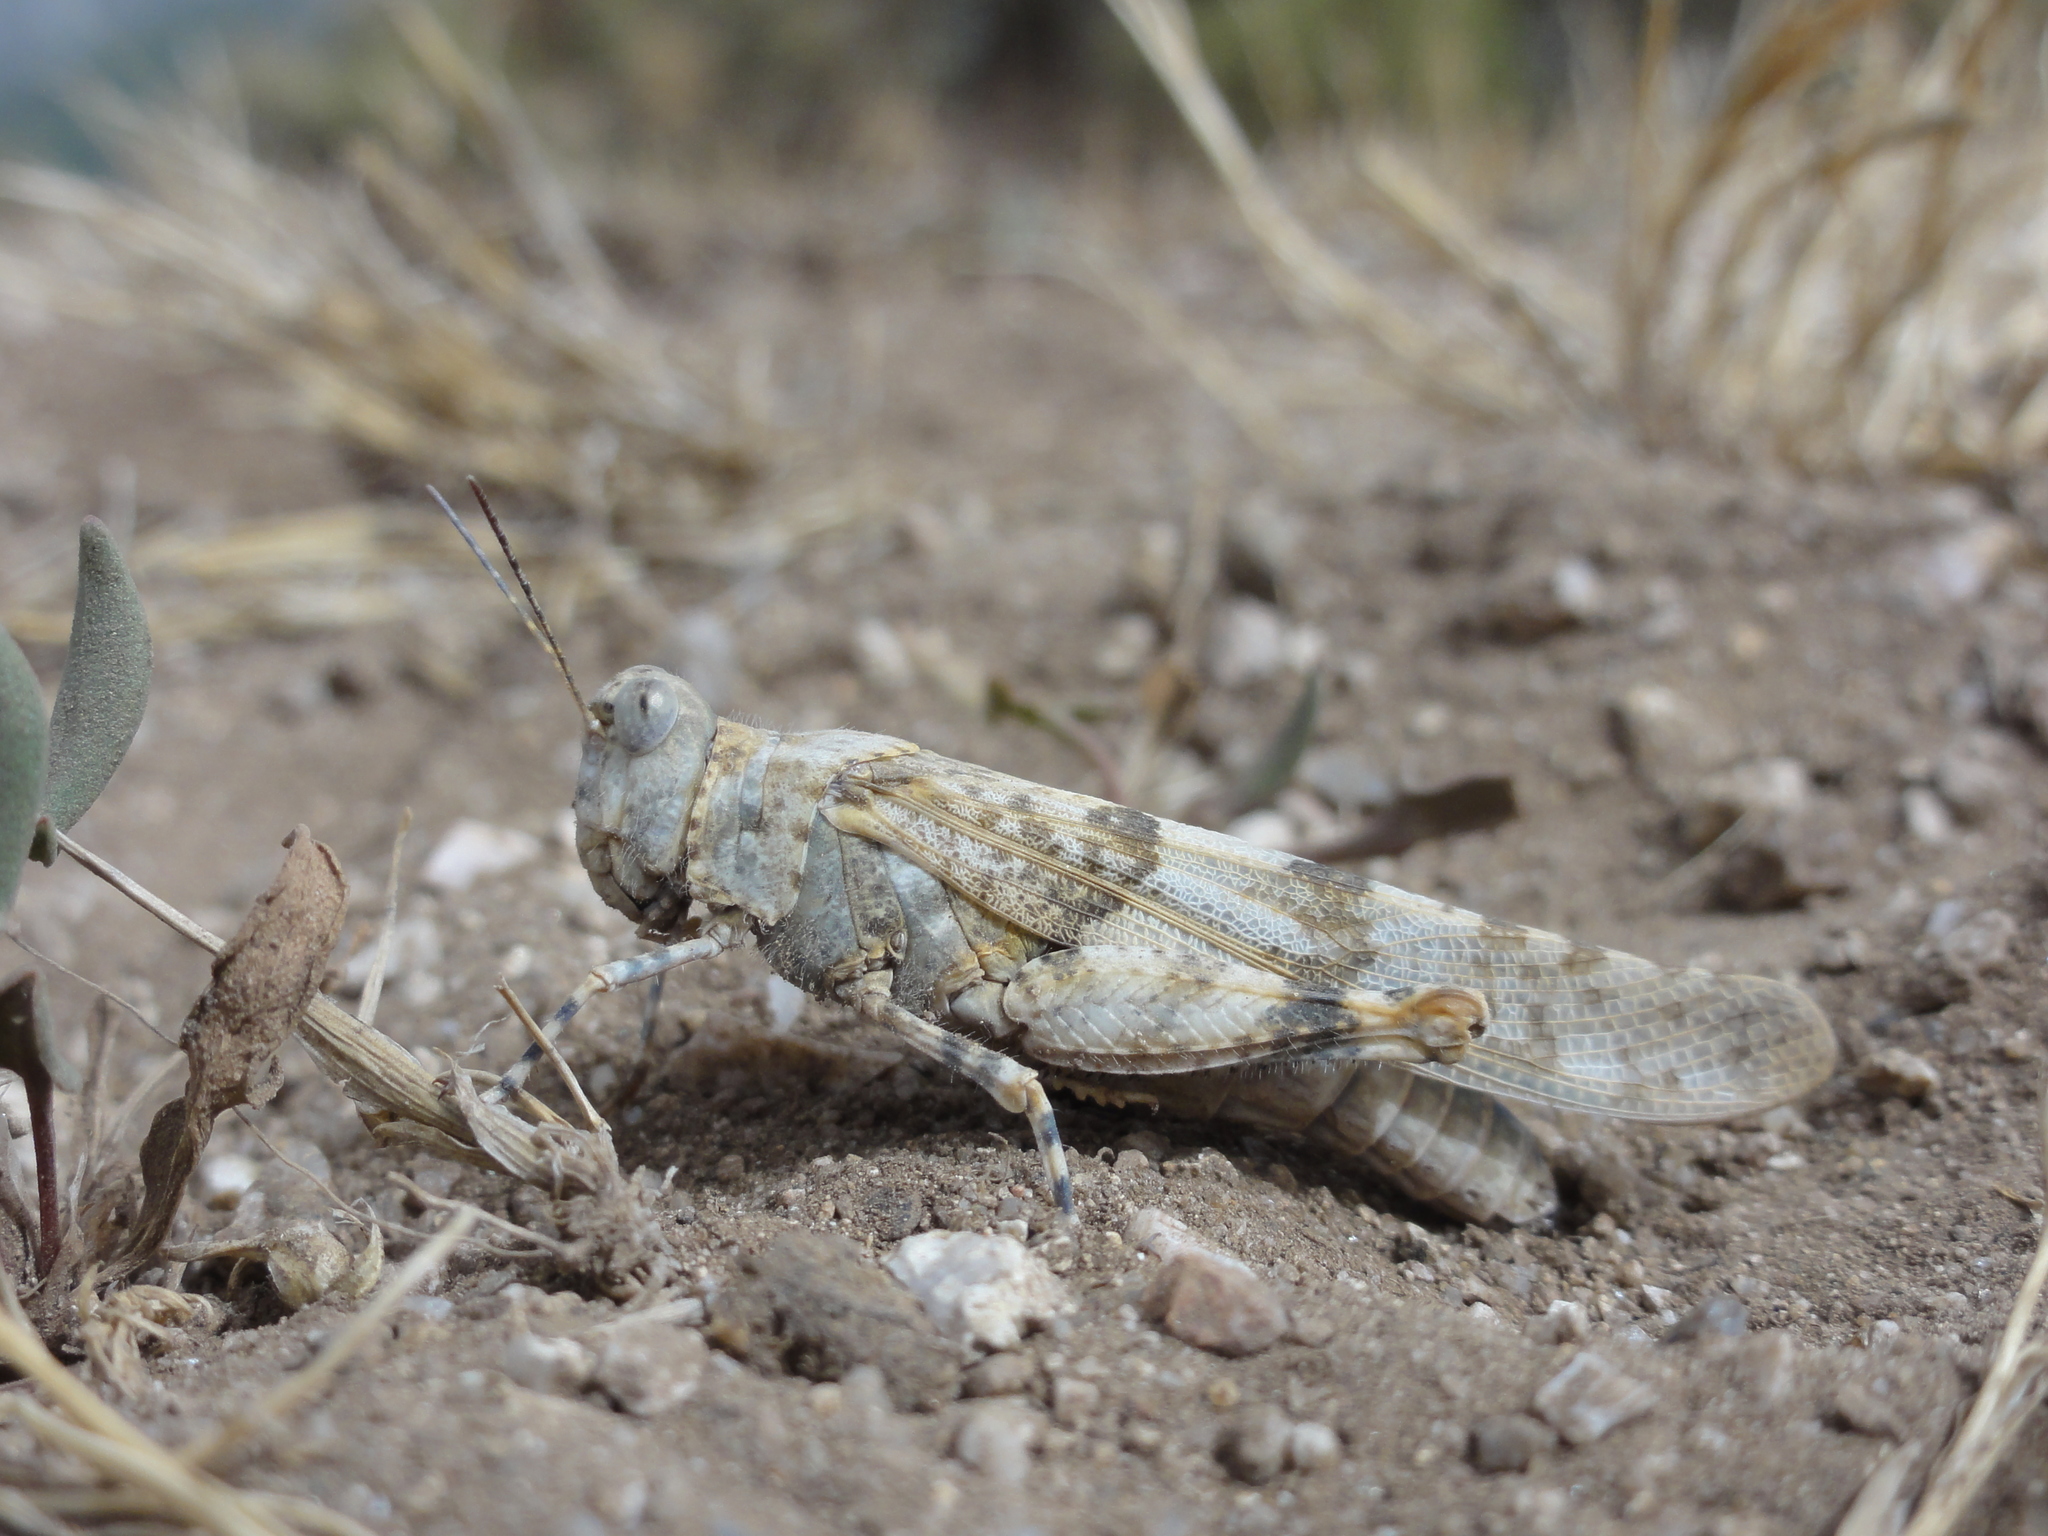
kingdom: Animalia
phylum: Arthropoda
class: Insecta
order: Orthoptera
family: Acrididae
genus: Sphingonotus
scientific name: Sphingonotus corsicus
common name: Corsican sand grasshopper
